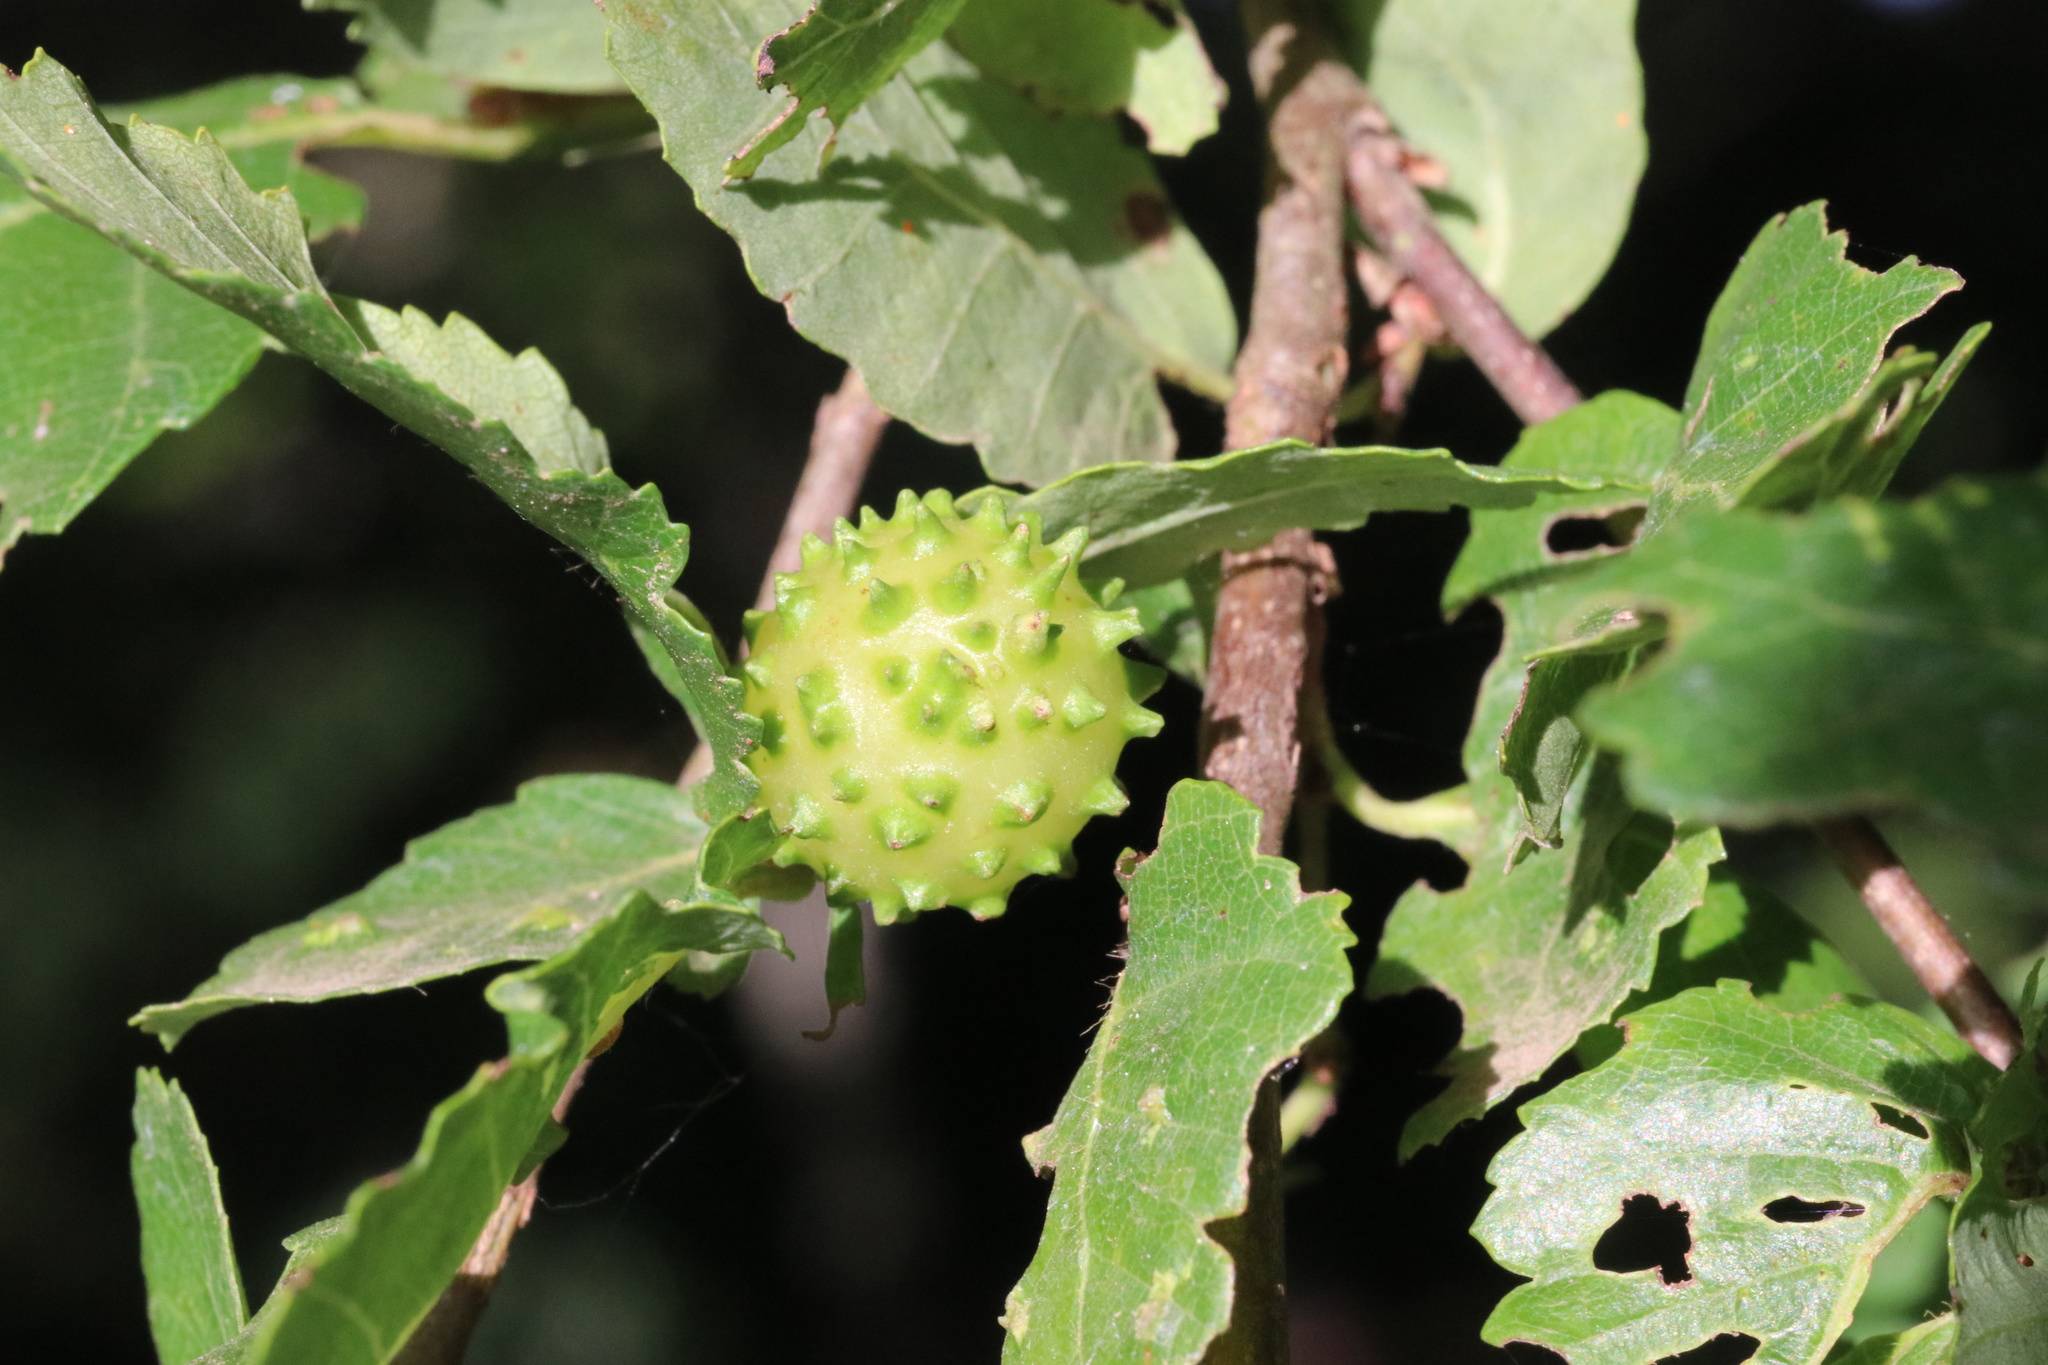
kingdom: Animalia
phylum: Arthropoda
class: Insecta
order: Hymenoptera
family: Pteromalidae
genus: Espinosa
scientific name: Espinosa nothofagi
